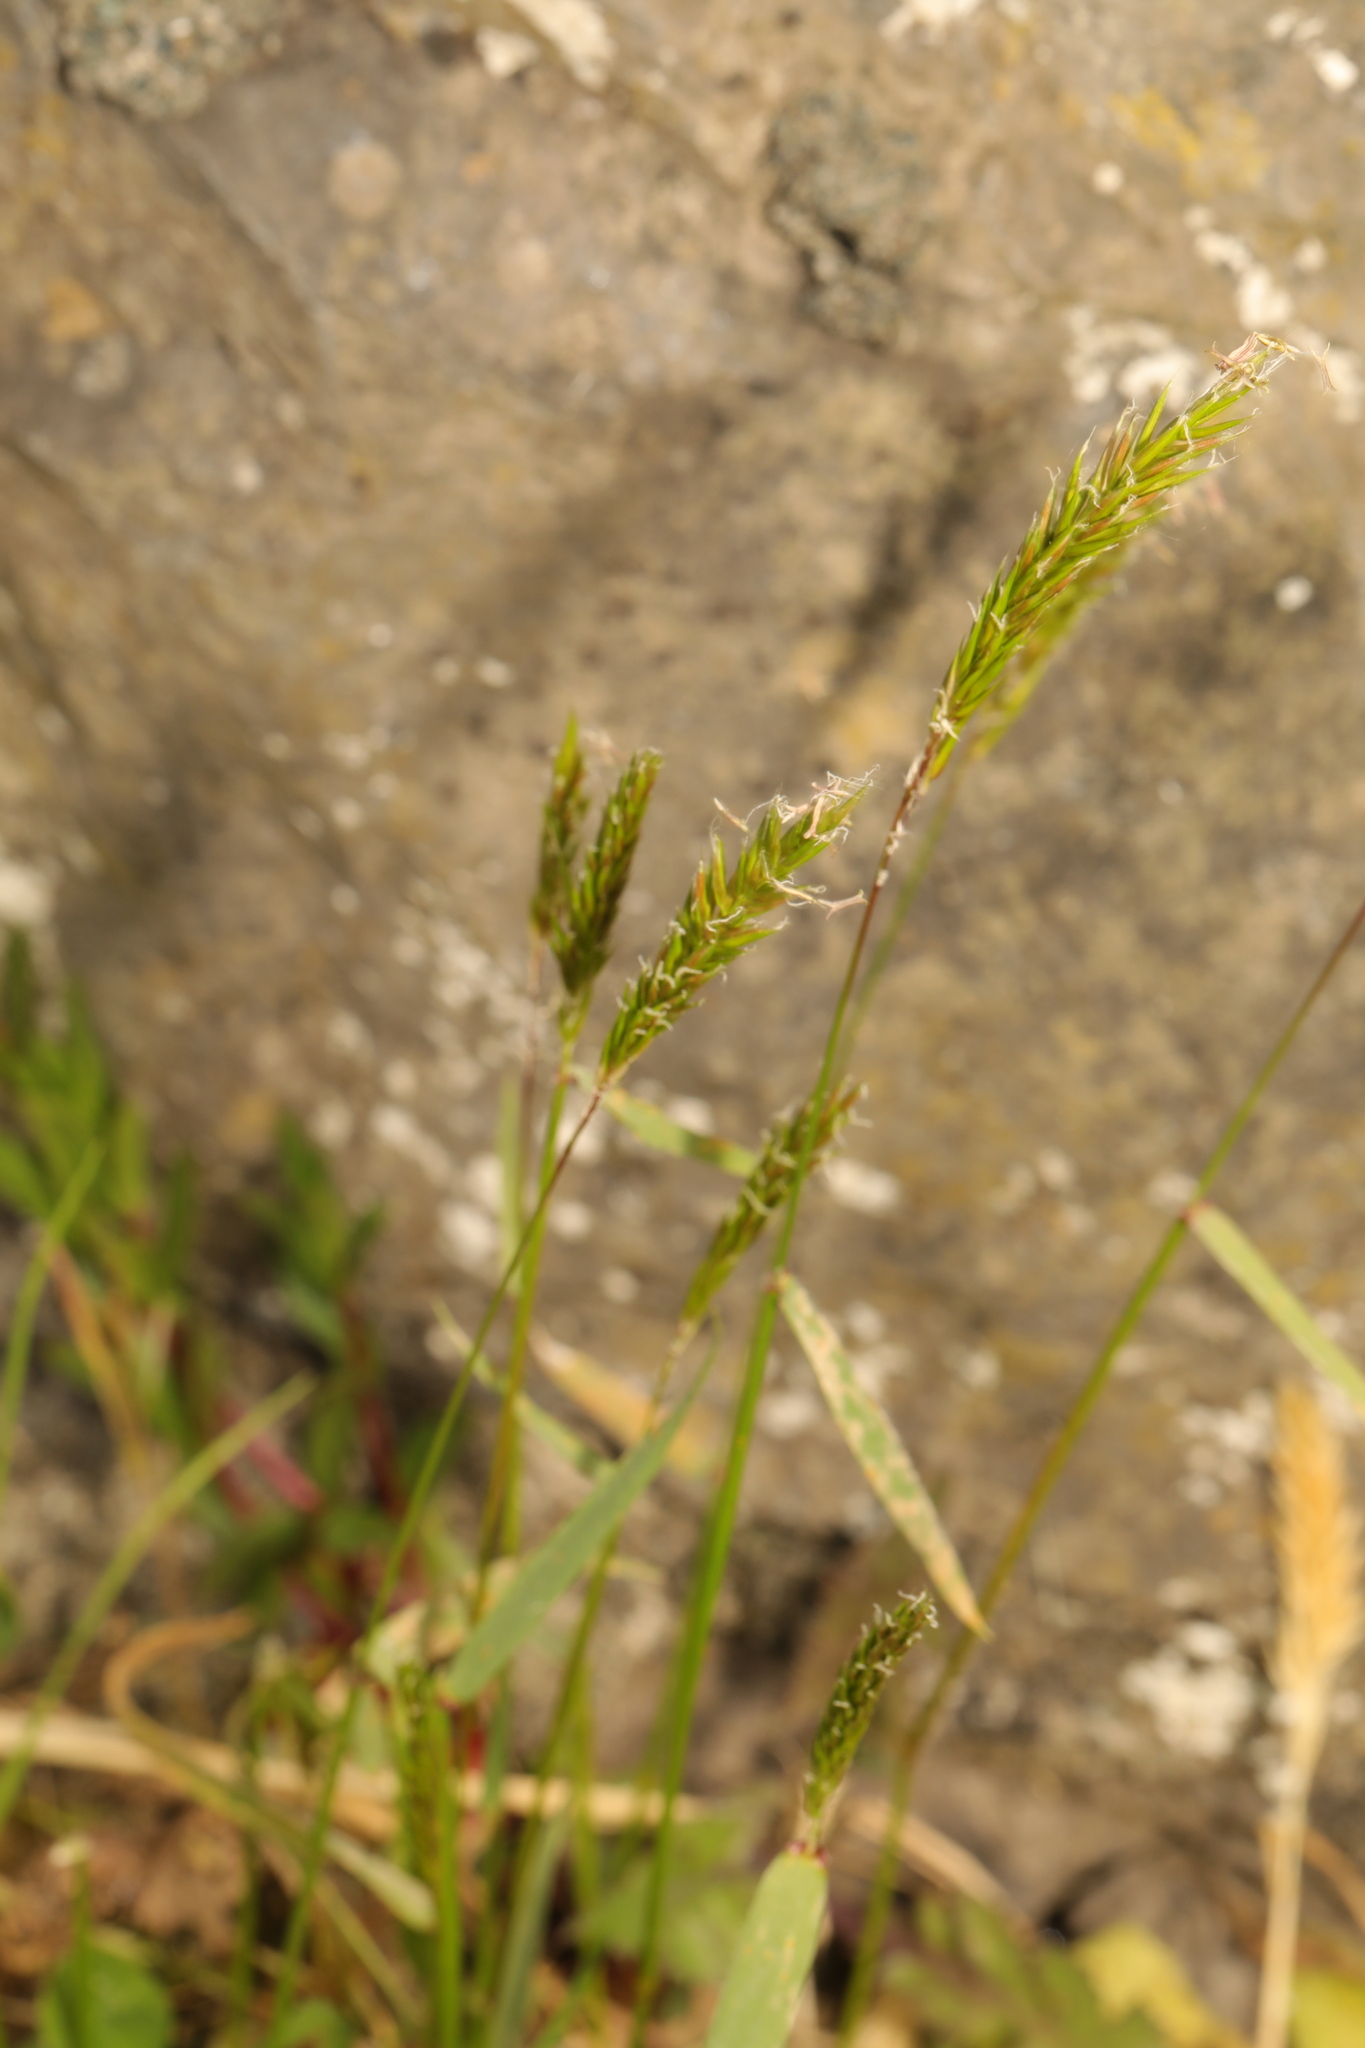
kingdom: Plantae
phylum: Tracheophyta
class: Liliopsida
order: Poales
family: Poaceae
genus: Anthoxanthum
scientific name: Anthoxanthum odoratum
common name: Sweet vernalgrass
